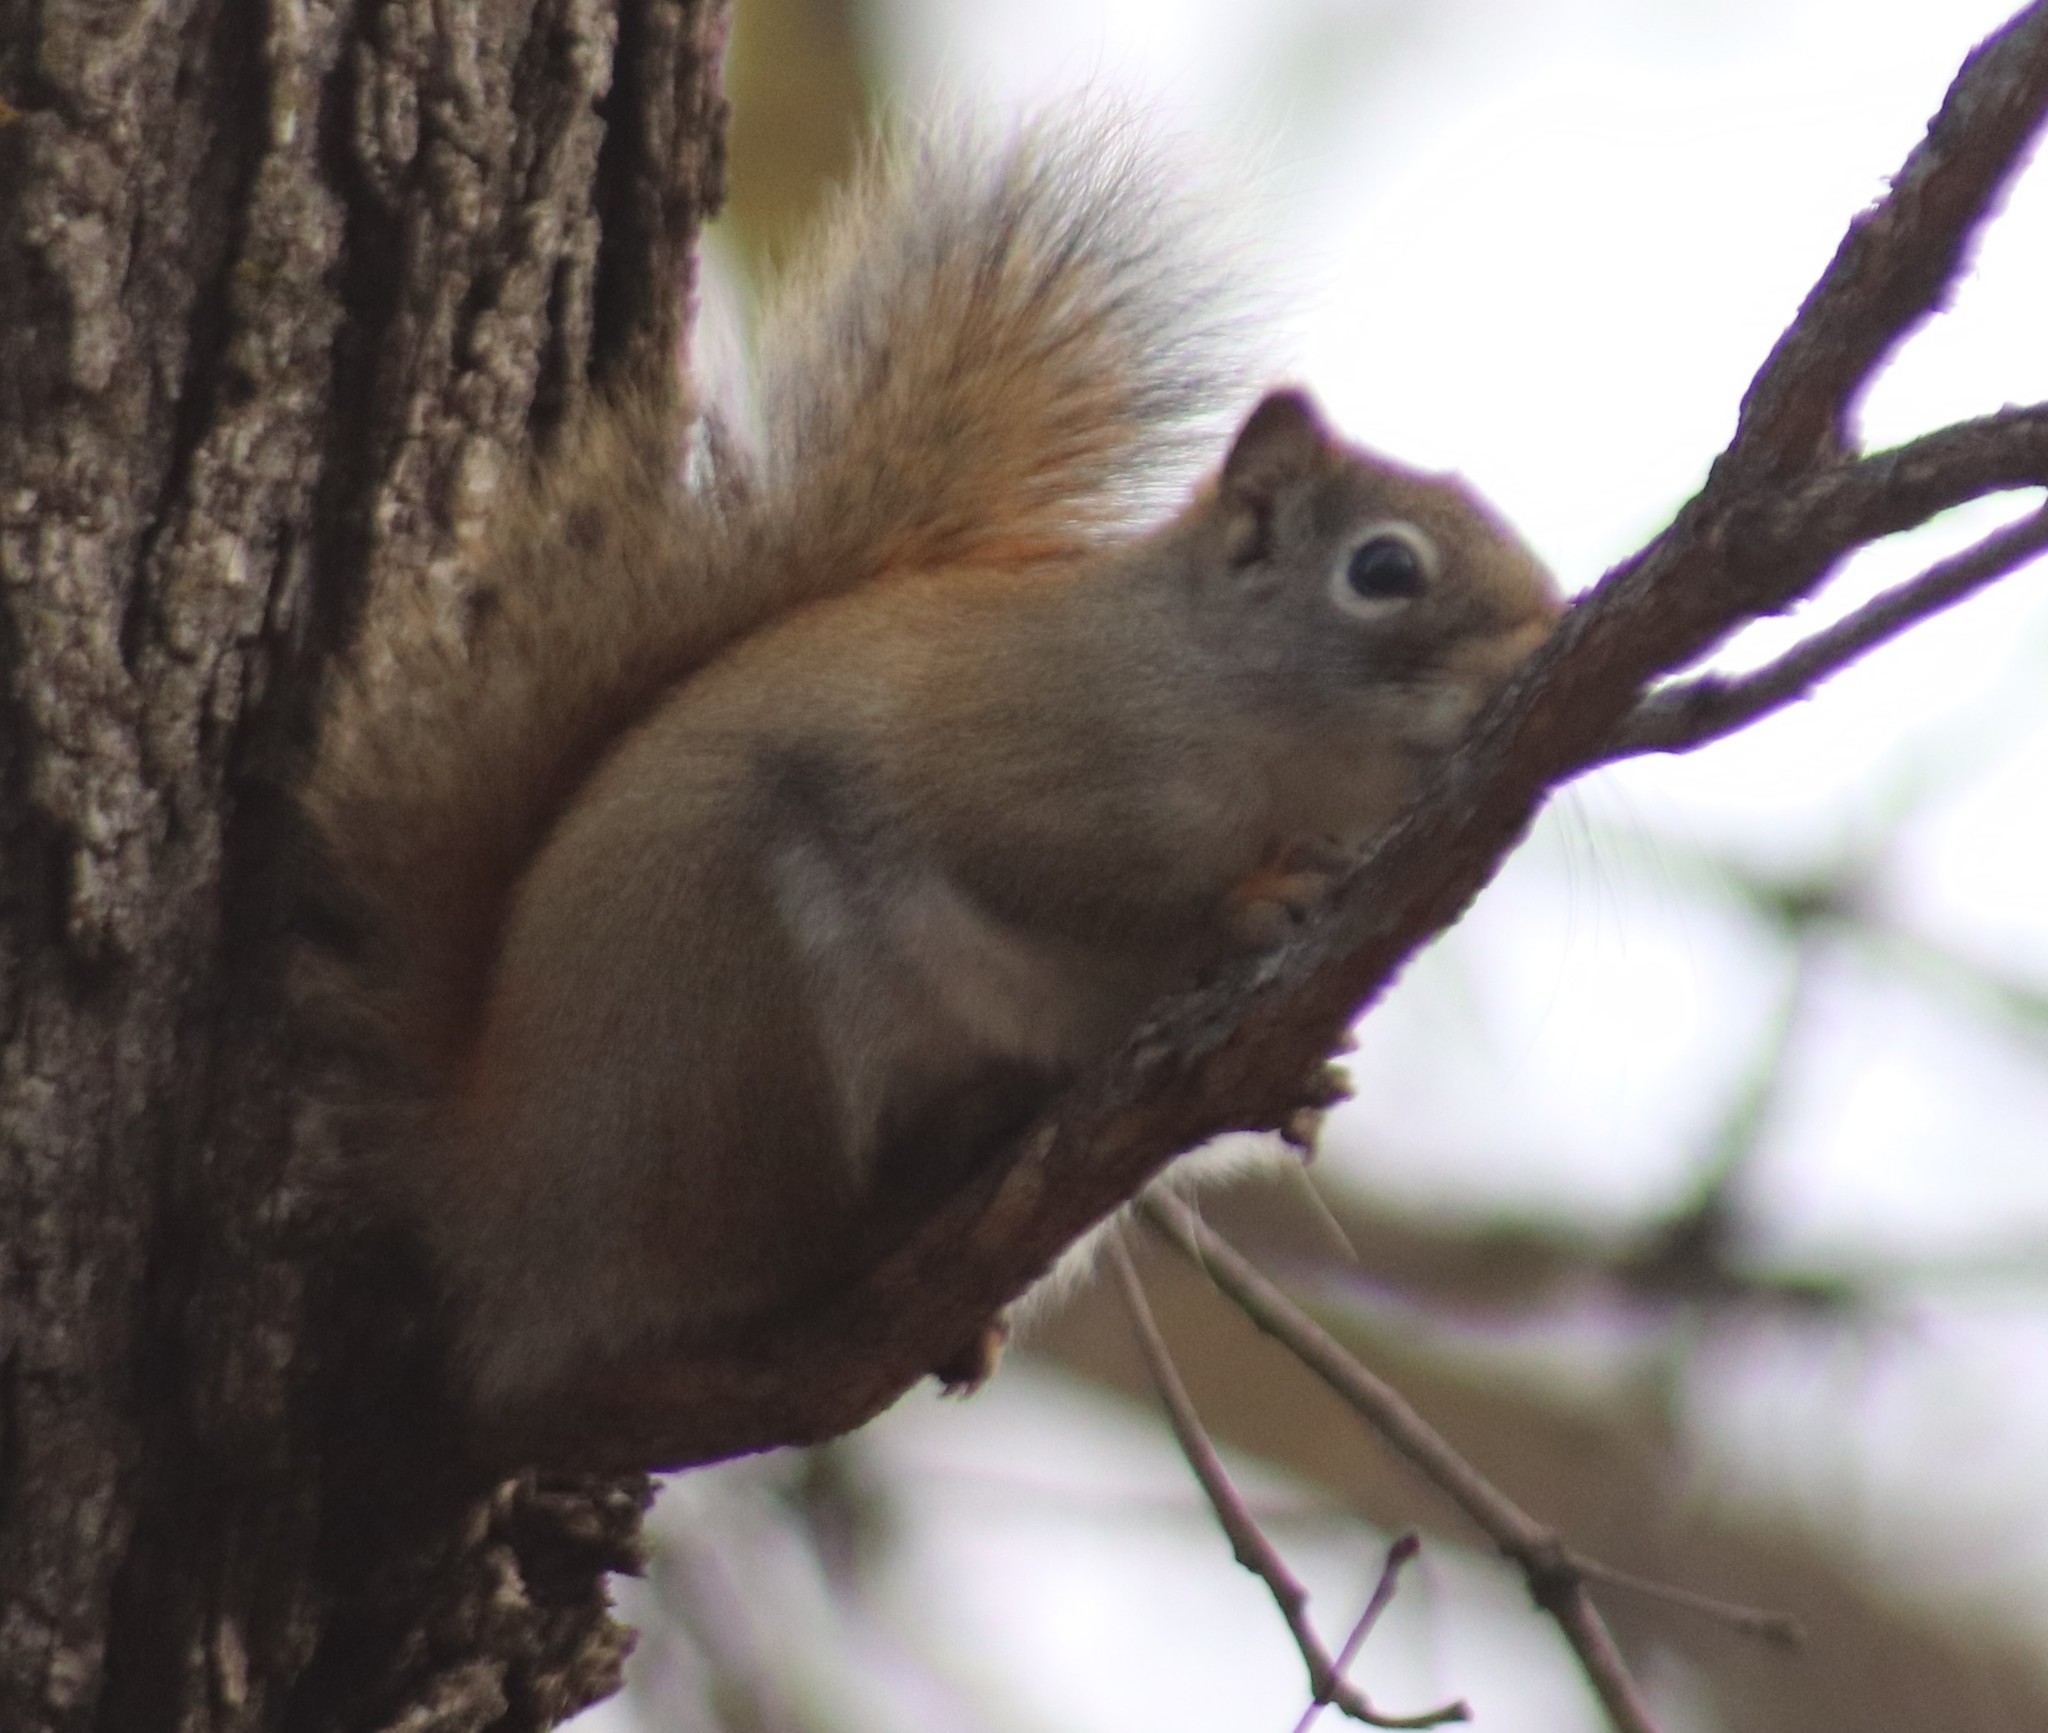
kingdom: Animalia
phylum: Chordata
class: Mammalia
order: Rodentia
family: Sciuridae
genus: Tamiasciurus
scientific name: Tamiasciurus hudsonicus
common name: Red squirrel
